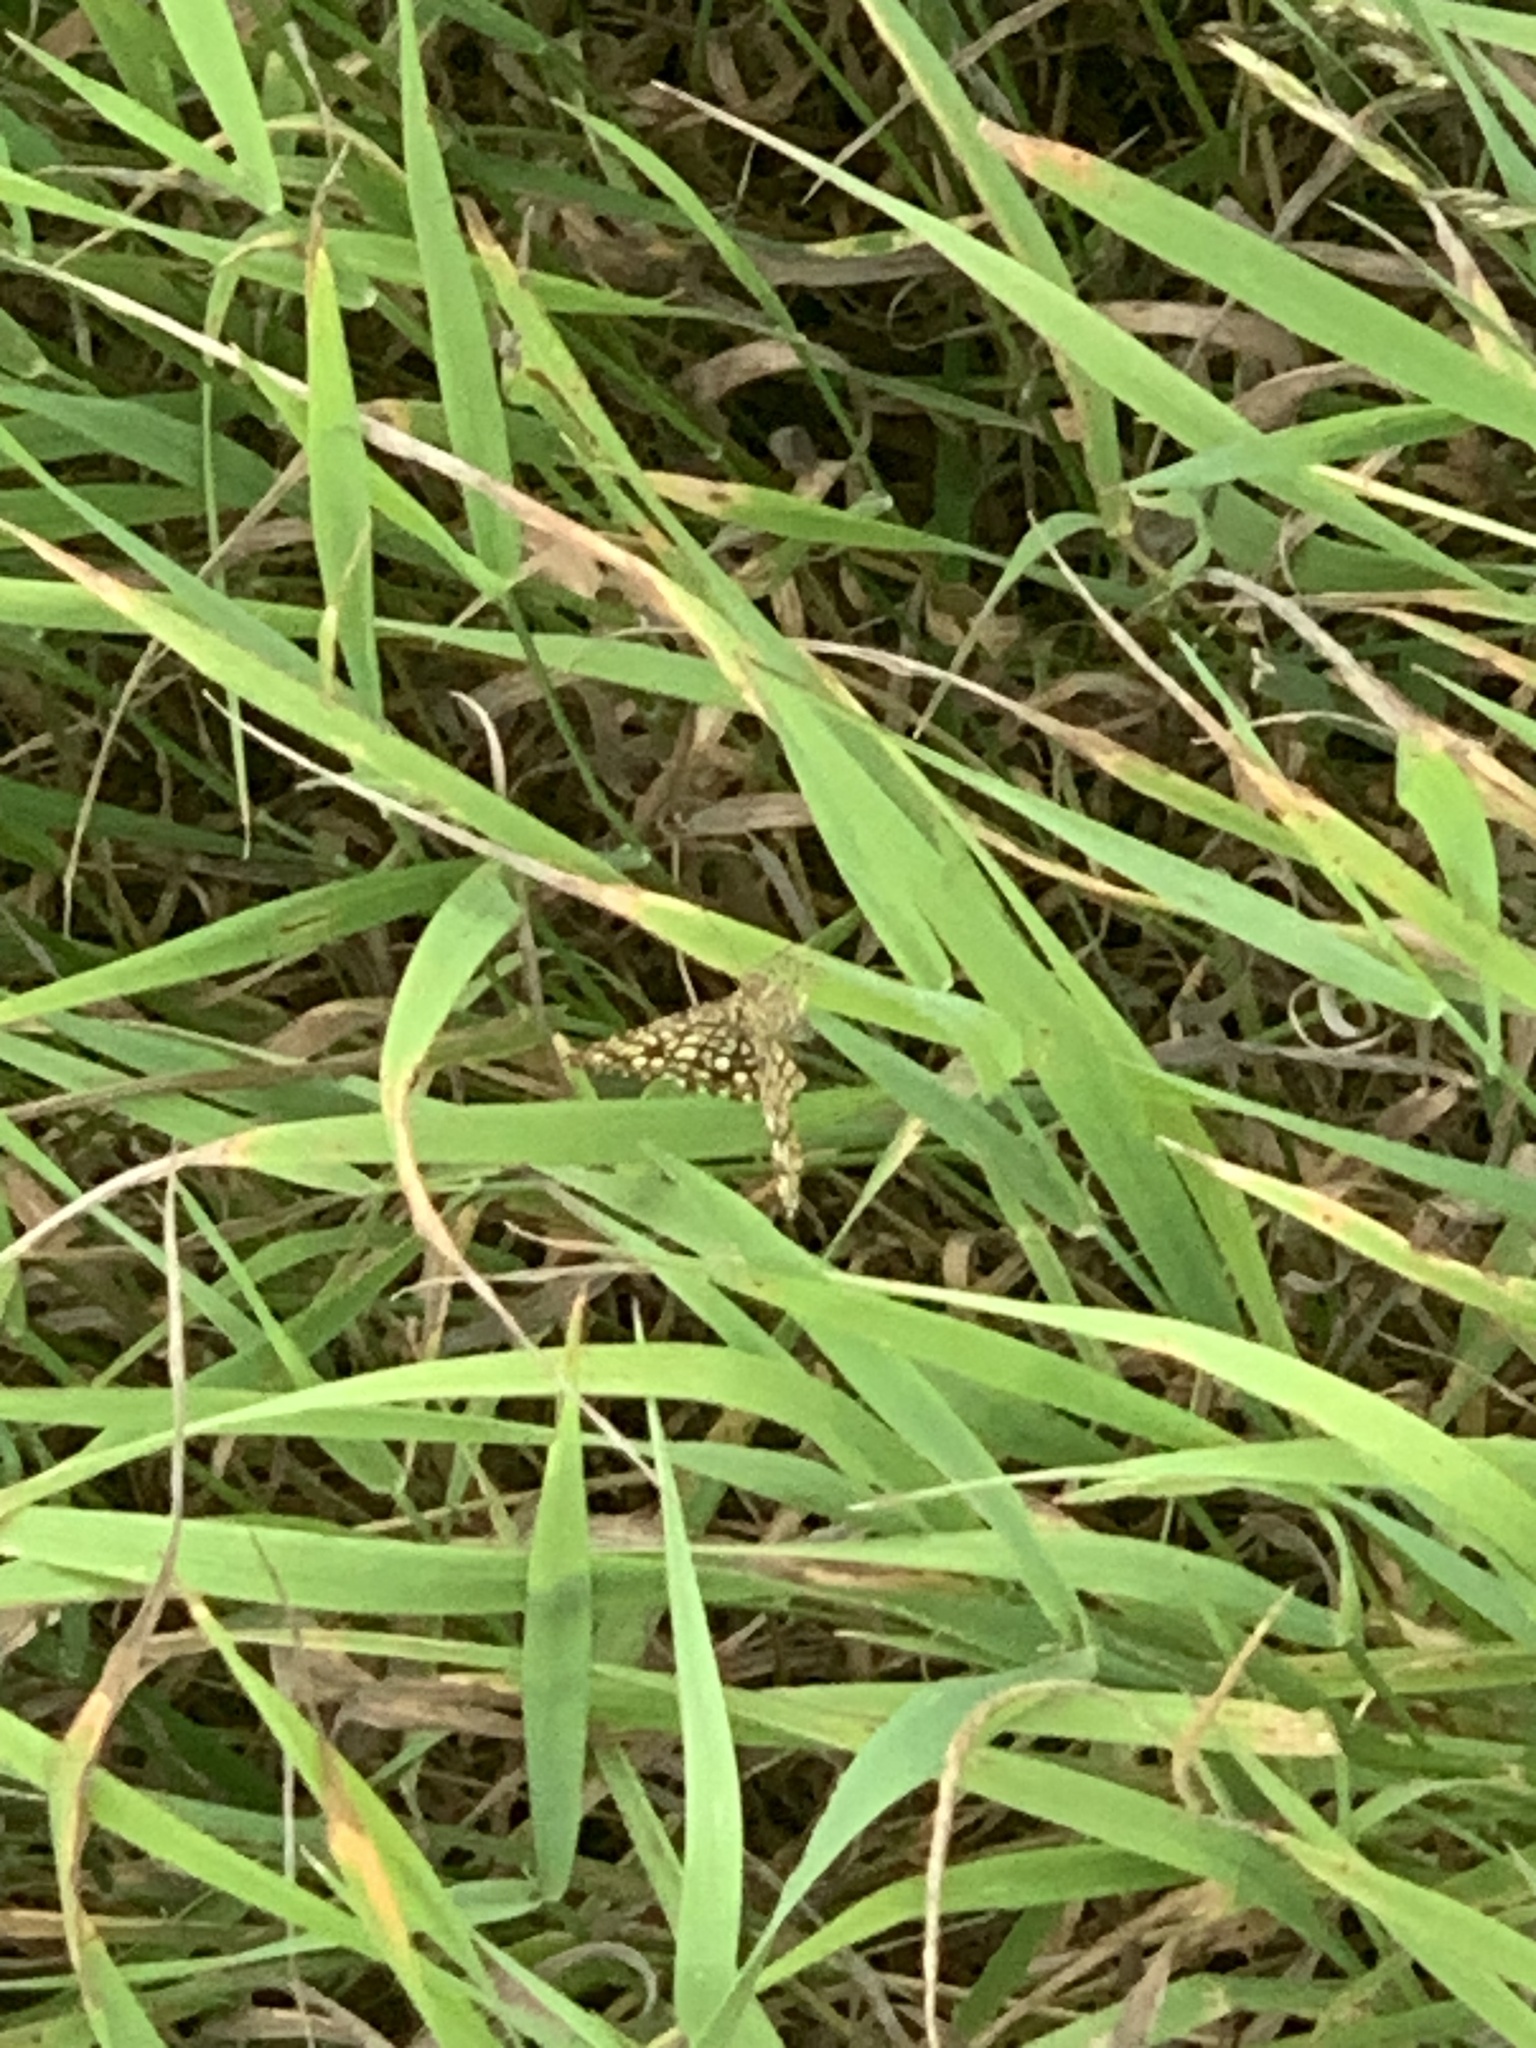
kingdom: Animalia
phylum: Arthropoda
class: Insecta
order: Lepidoptera
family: Geometridae
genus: Chiasmia
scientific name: Chiasmia clathrata
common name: Latticed heath
